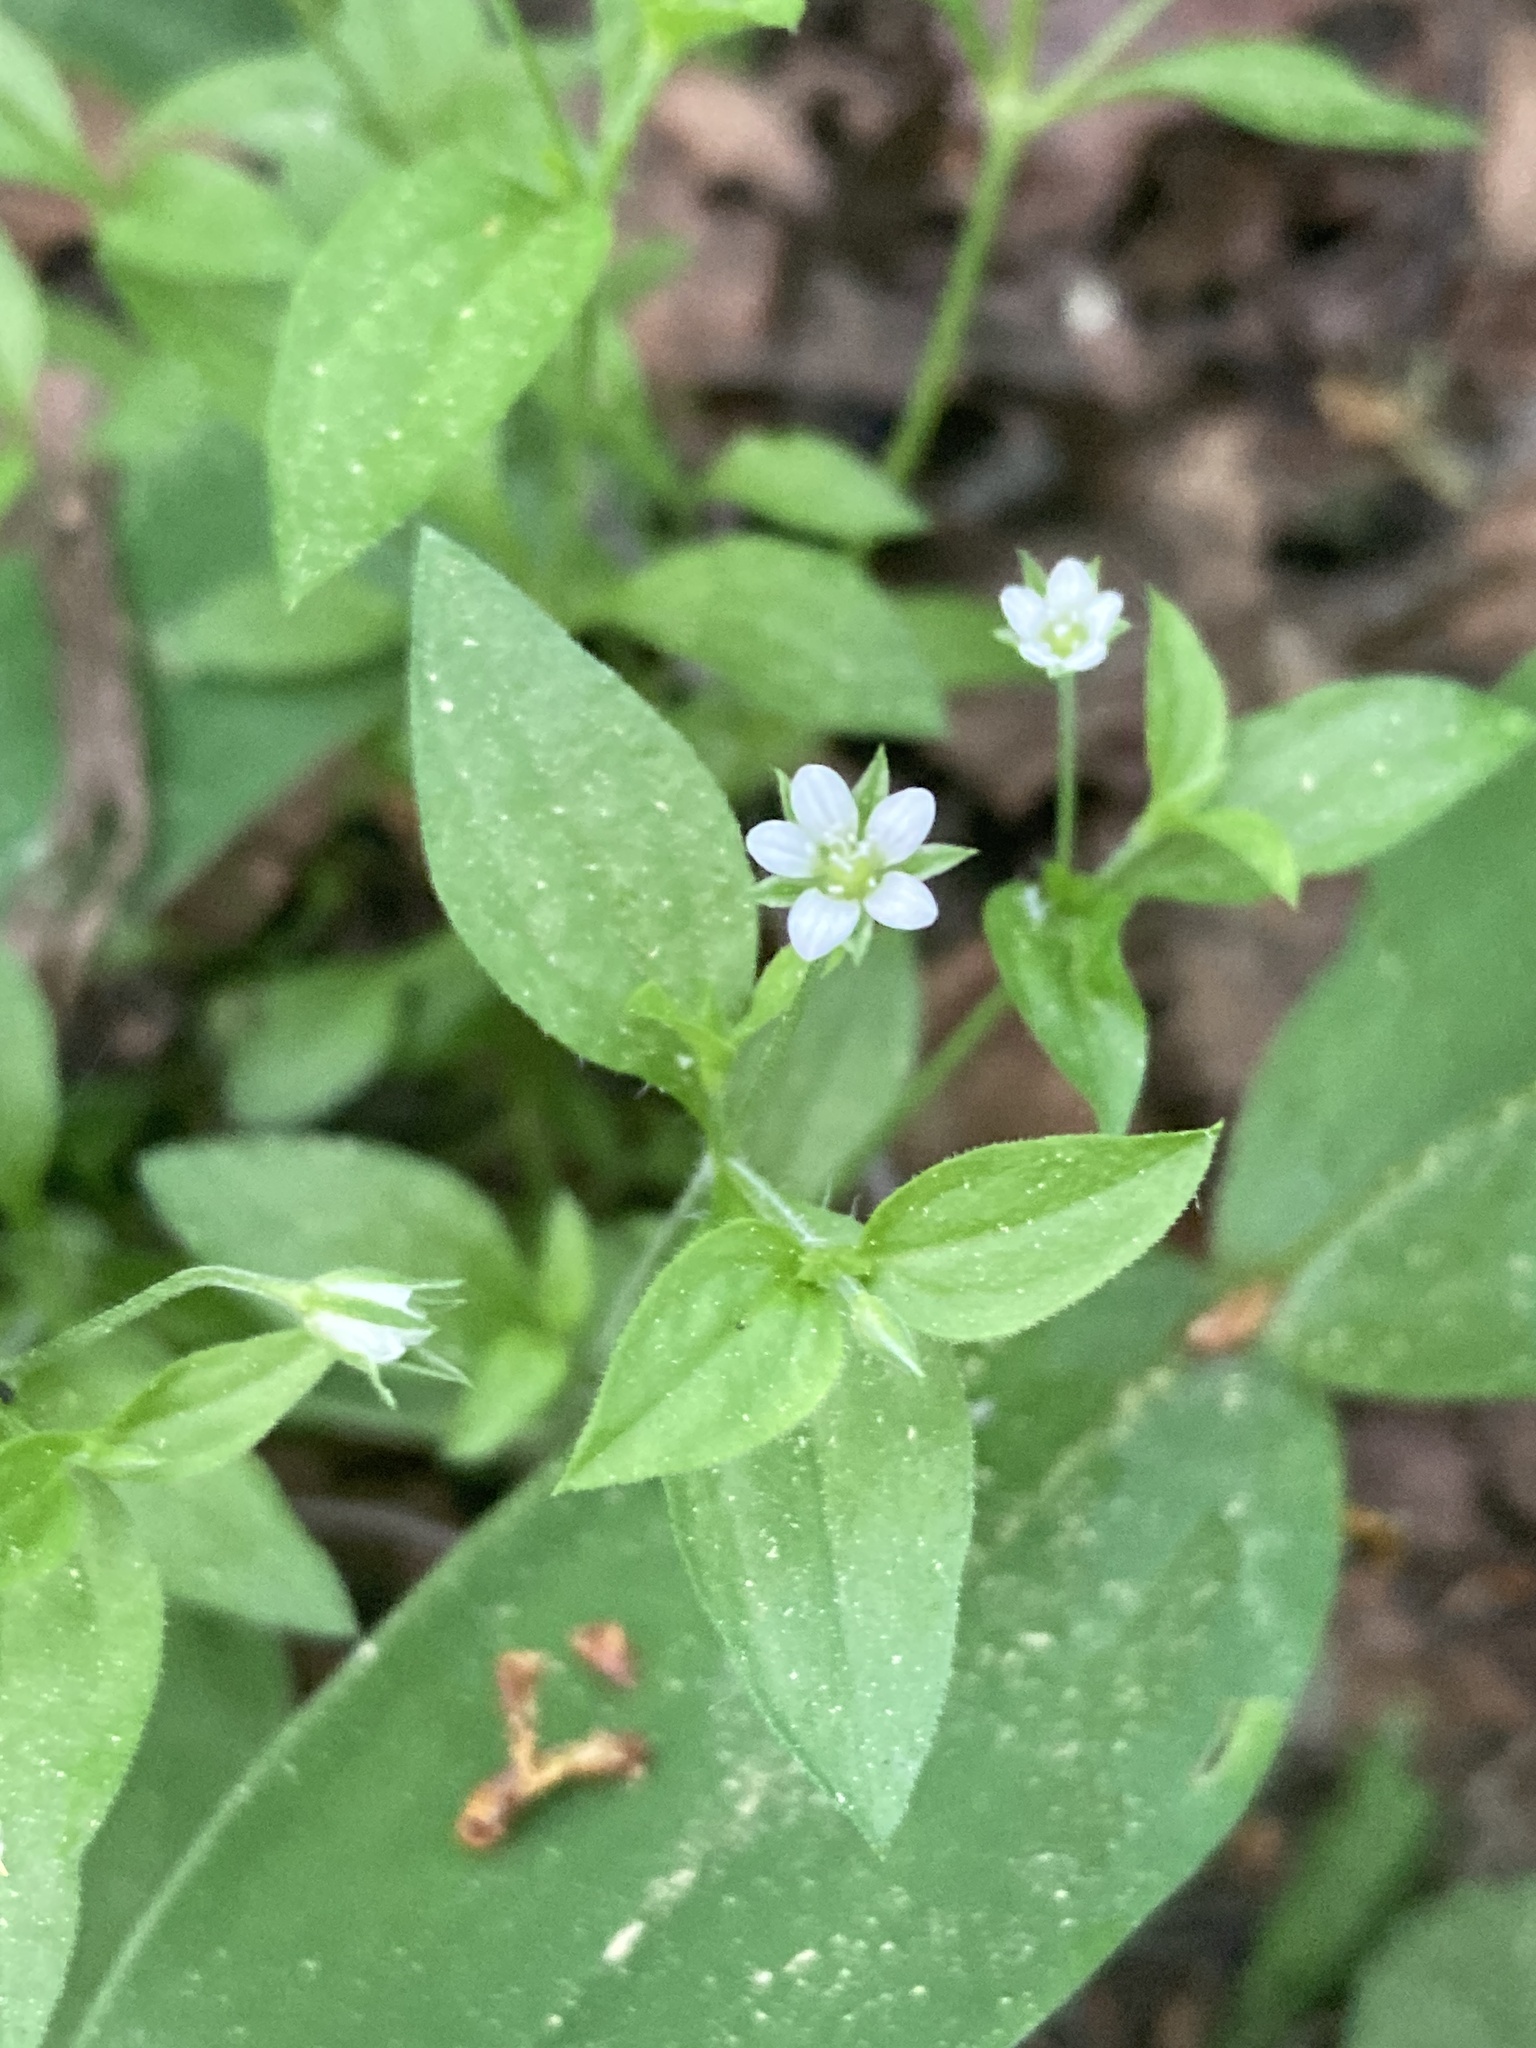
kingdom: Plantae
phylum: Tracheophyta
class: Magnoliopsida
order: Caryophyllales
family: Caryophyllaceae
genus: Moehringia
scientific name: Moehringia trinervia
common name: Three-nerved sandwort
